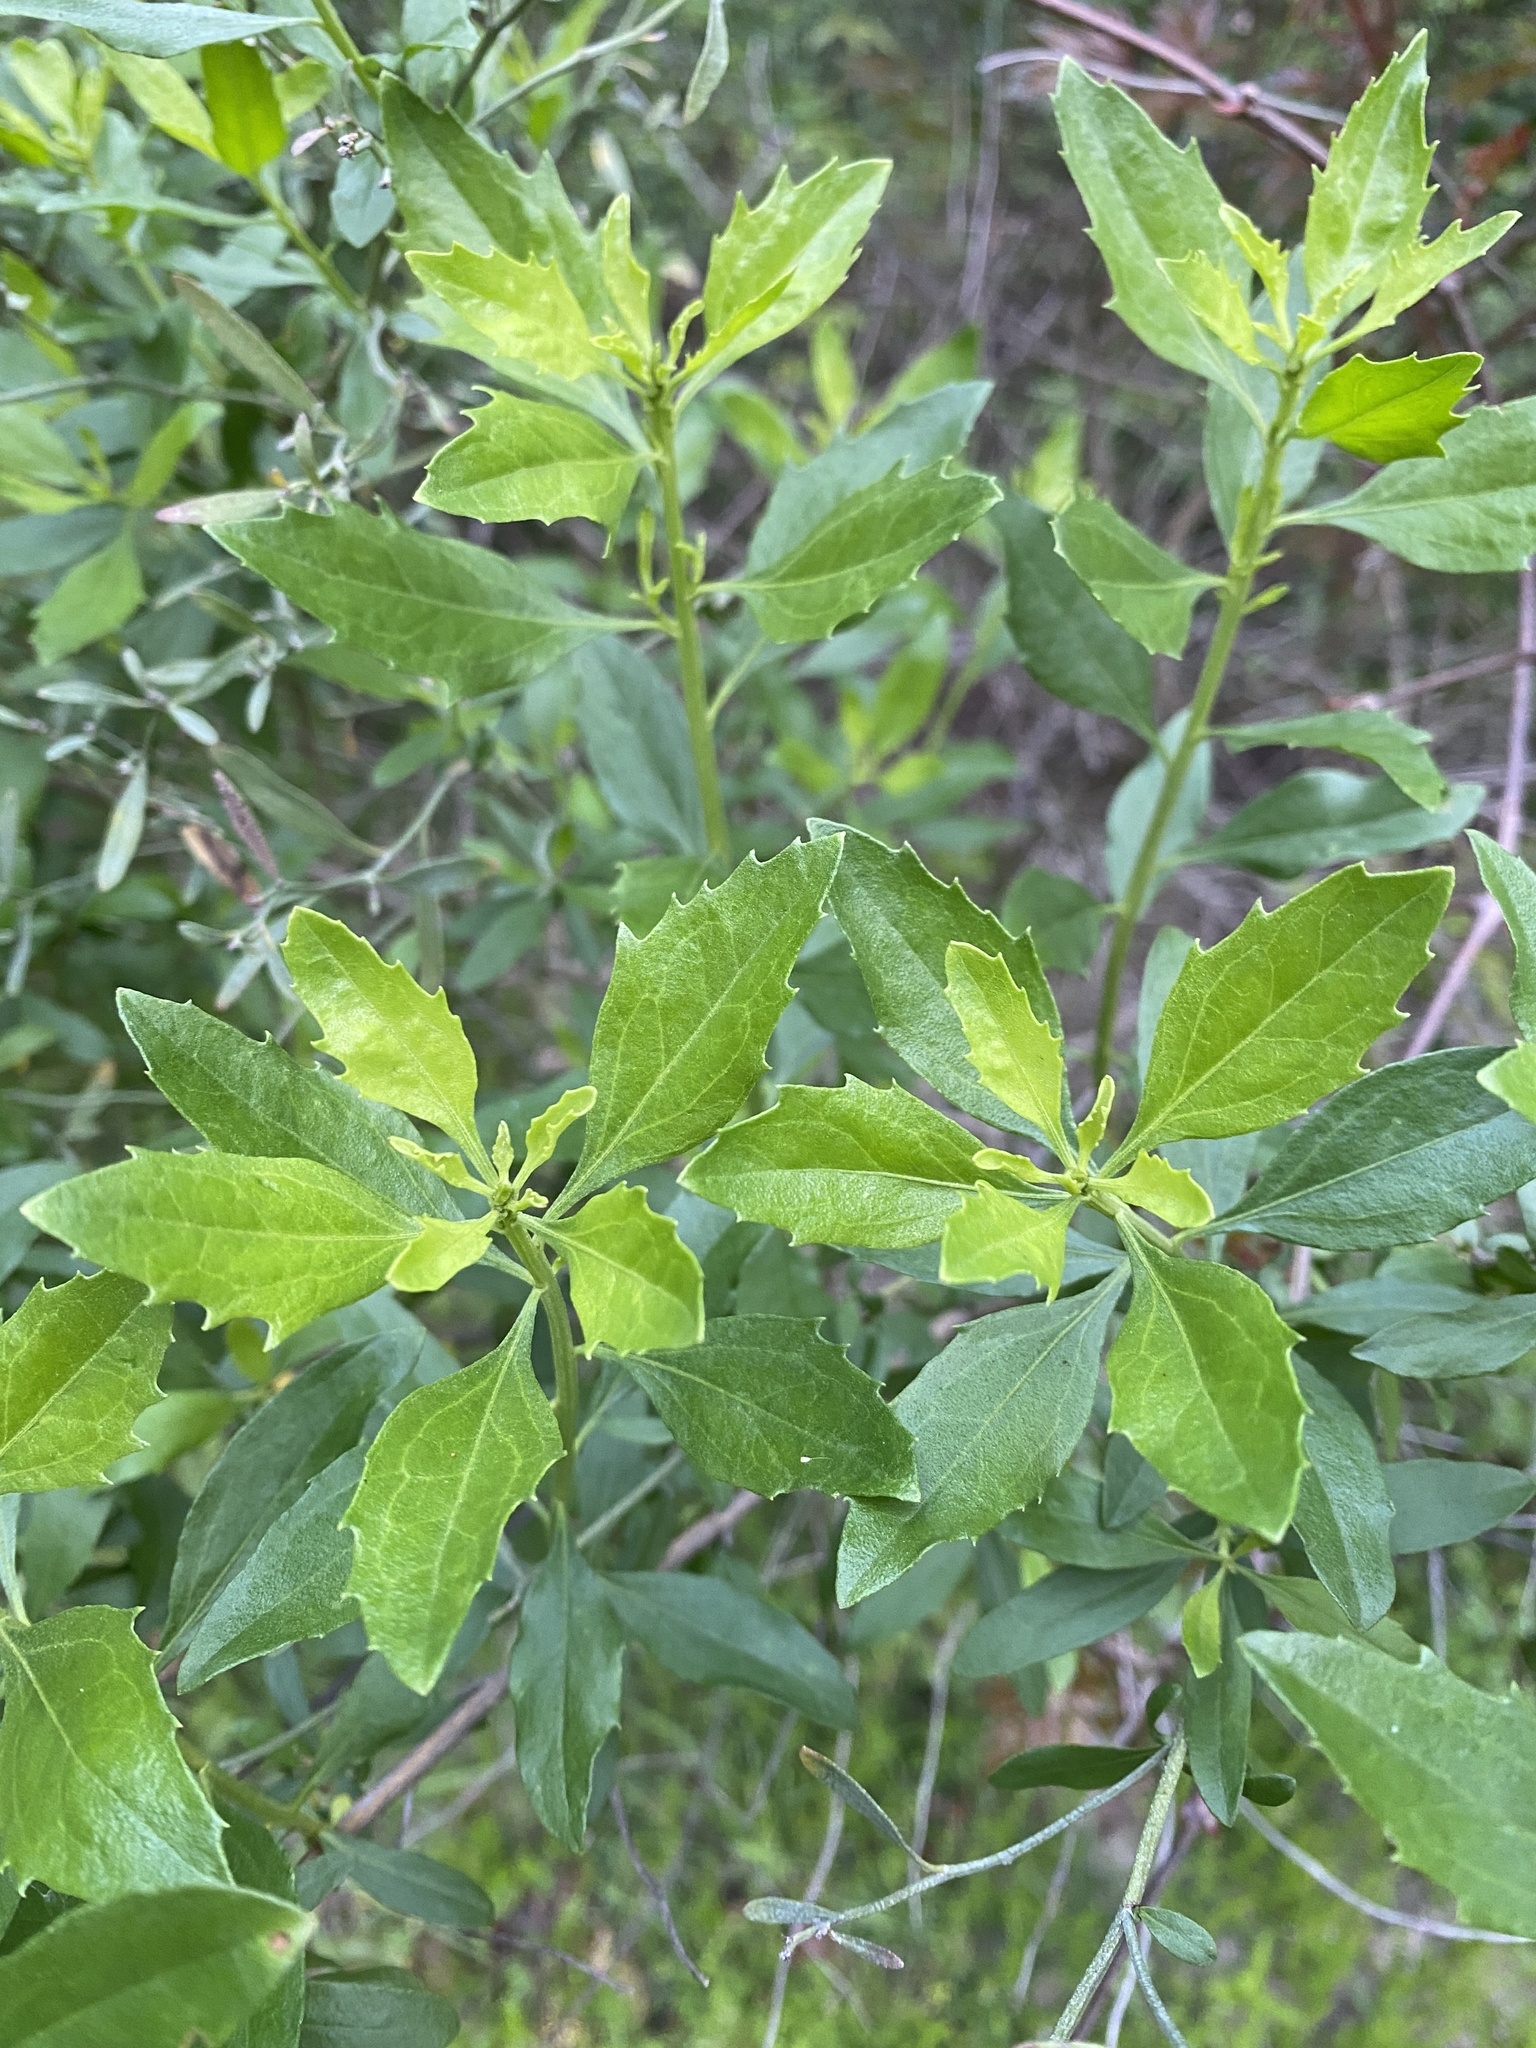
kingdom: Plantae
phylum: Tracheophyta
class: Magnoliopsida
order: Asterales
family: Asteraceae
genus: Baccharis
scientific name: Baccharis halimifolia
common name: Eastern baccharis
